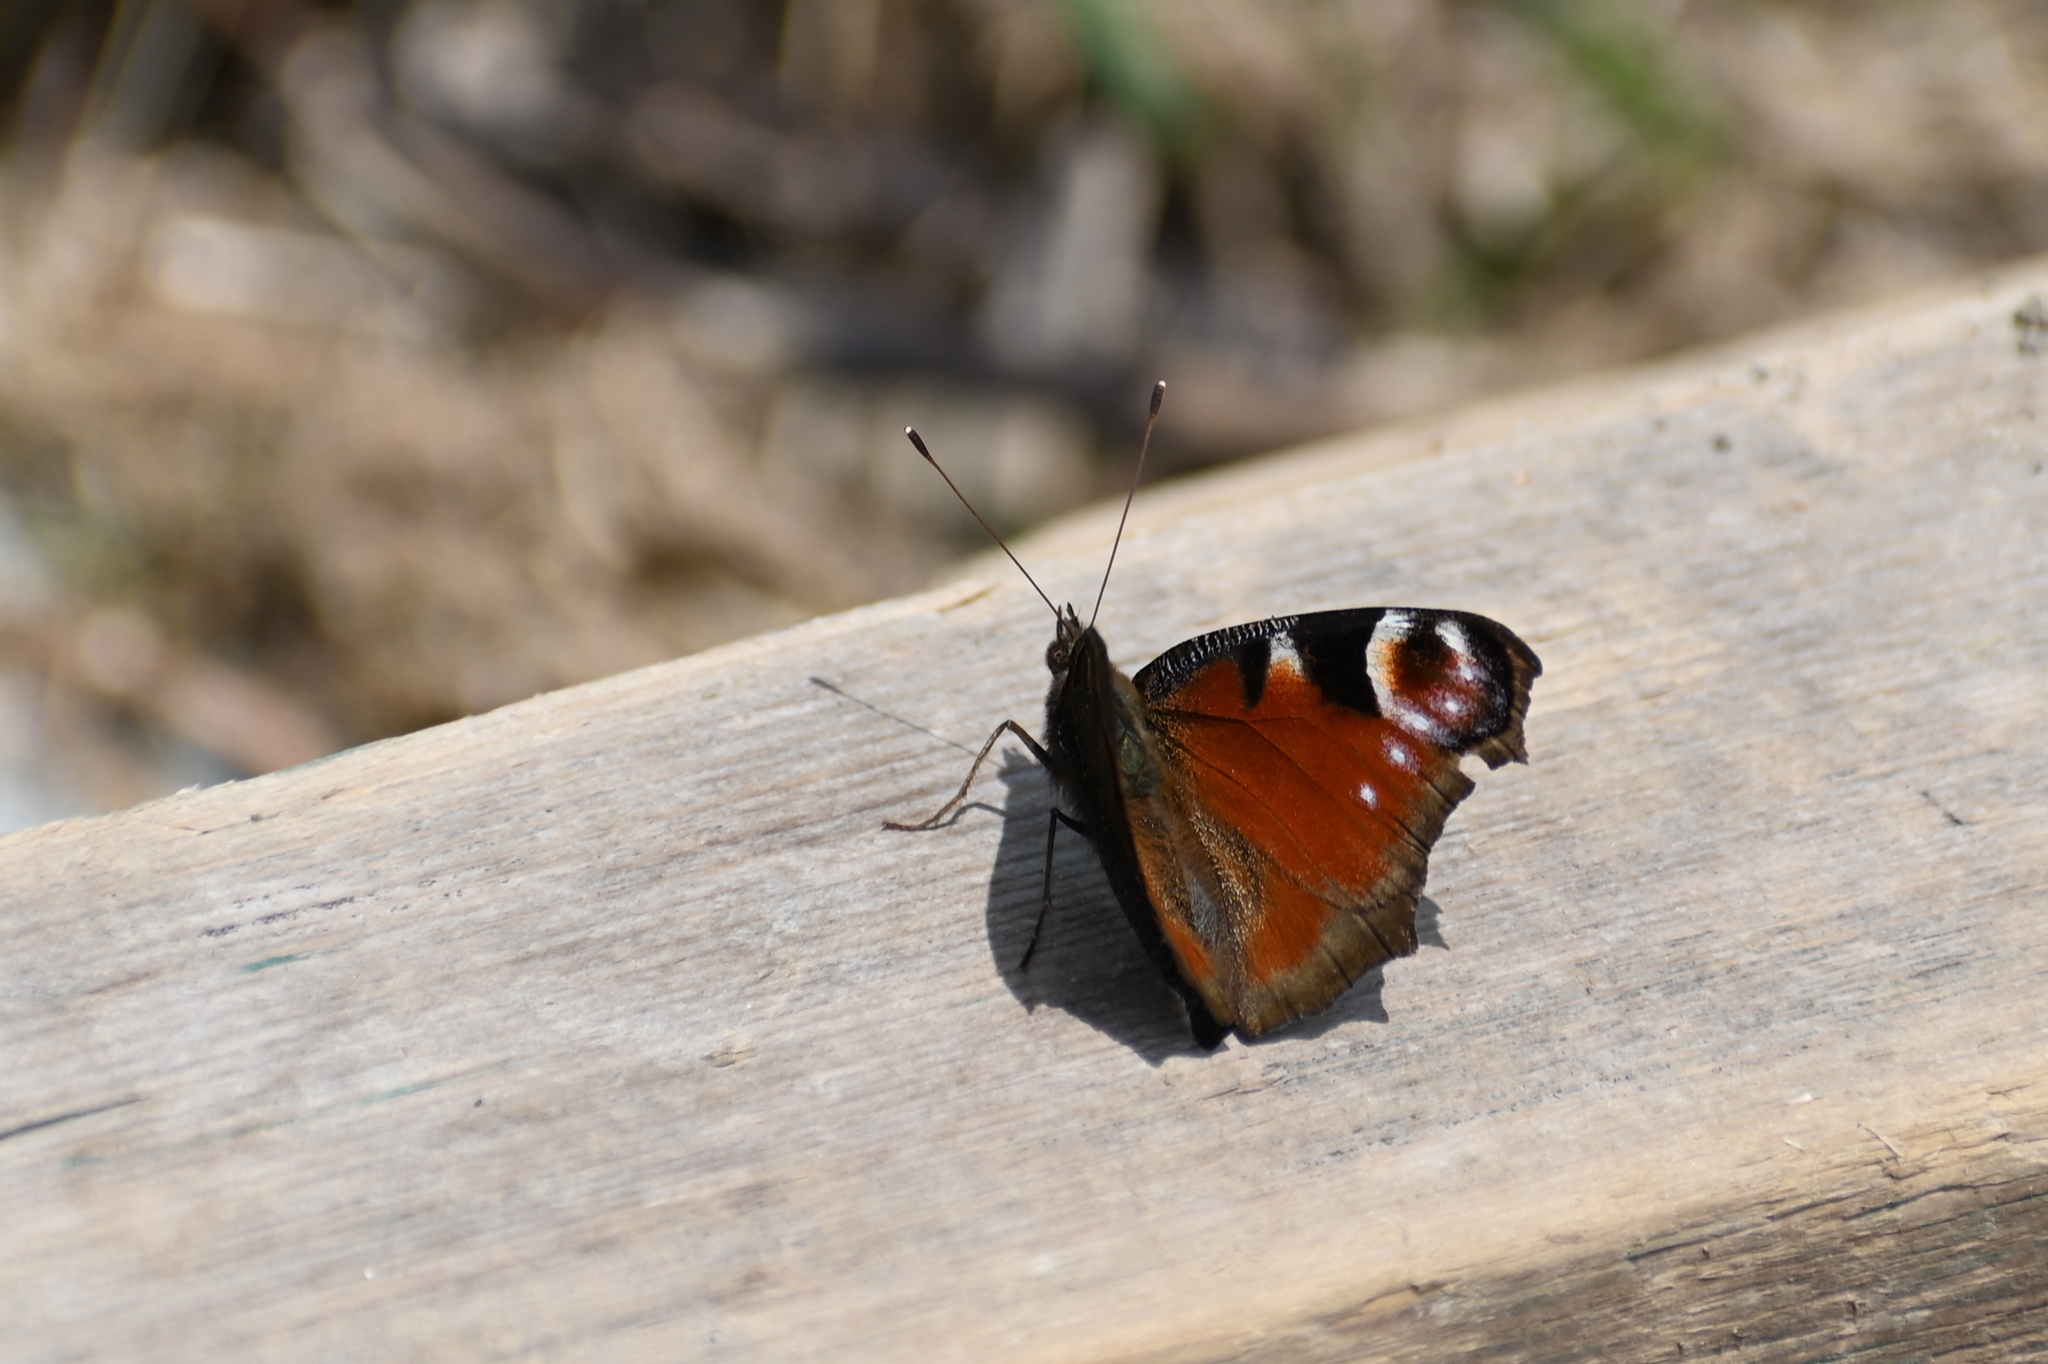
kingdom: Animalia
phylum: Arthropoda
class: Insecta
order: Lepidoptera
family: Nymphalidae
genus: Aglais
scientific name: Aglais io
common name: Peacock
